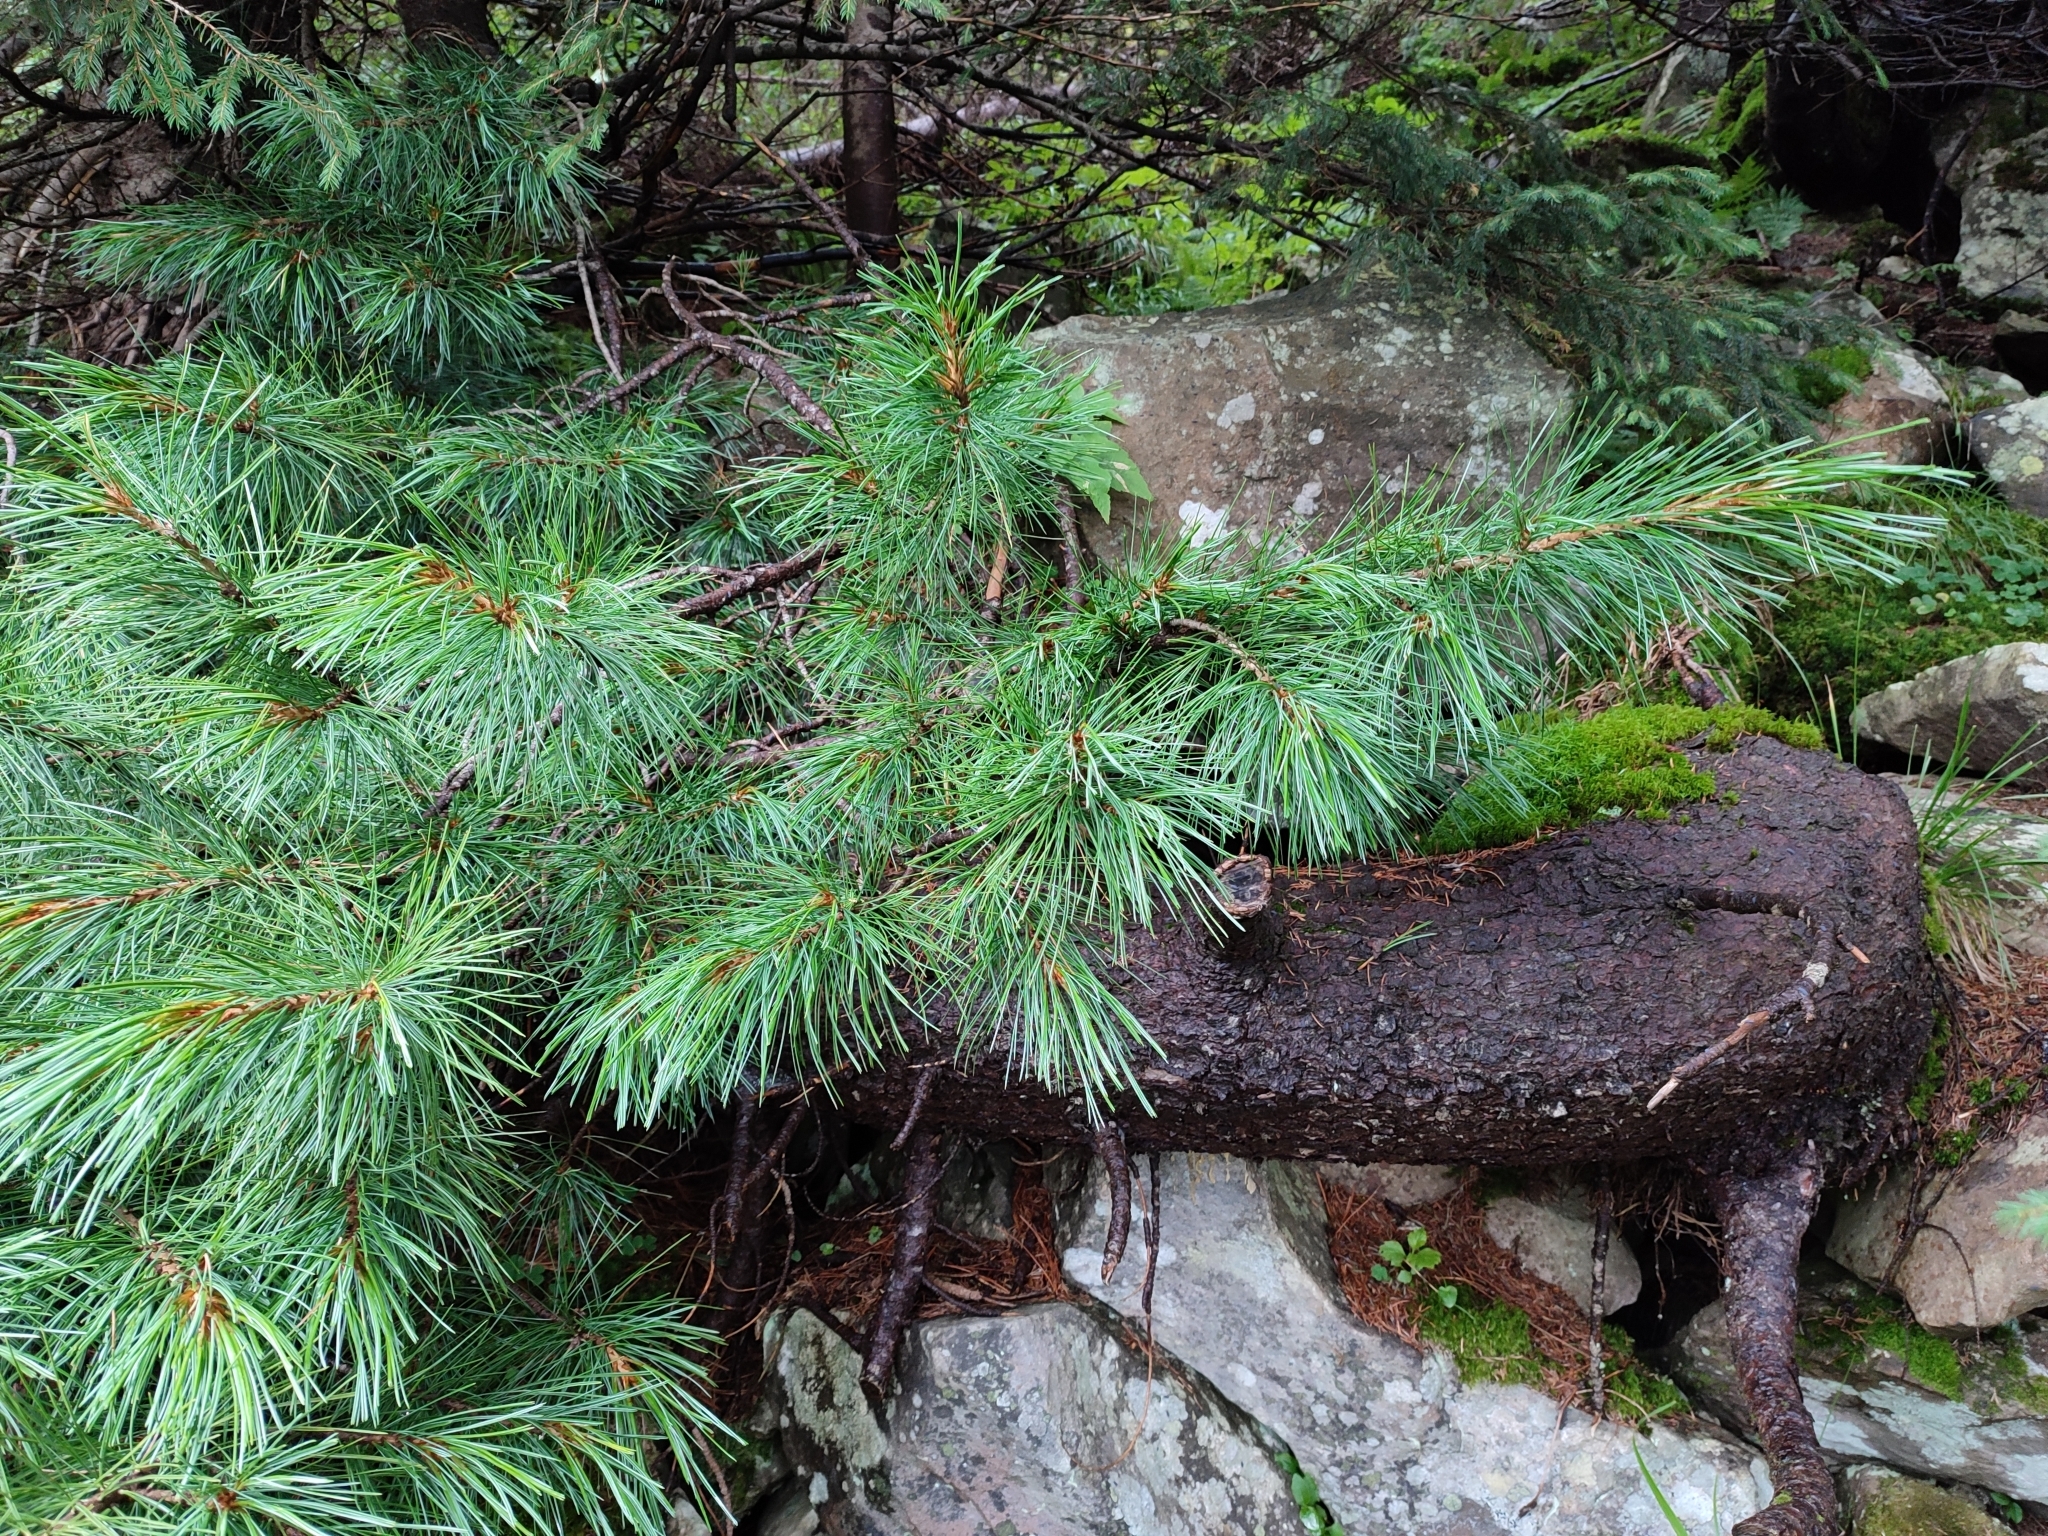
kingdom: Plantae
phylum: Tracheophyta
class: Pinopsida
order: Pinales
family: Pinaceae
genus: Pinus
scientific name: Pinus cembra
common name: Arolla pine
